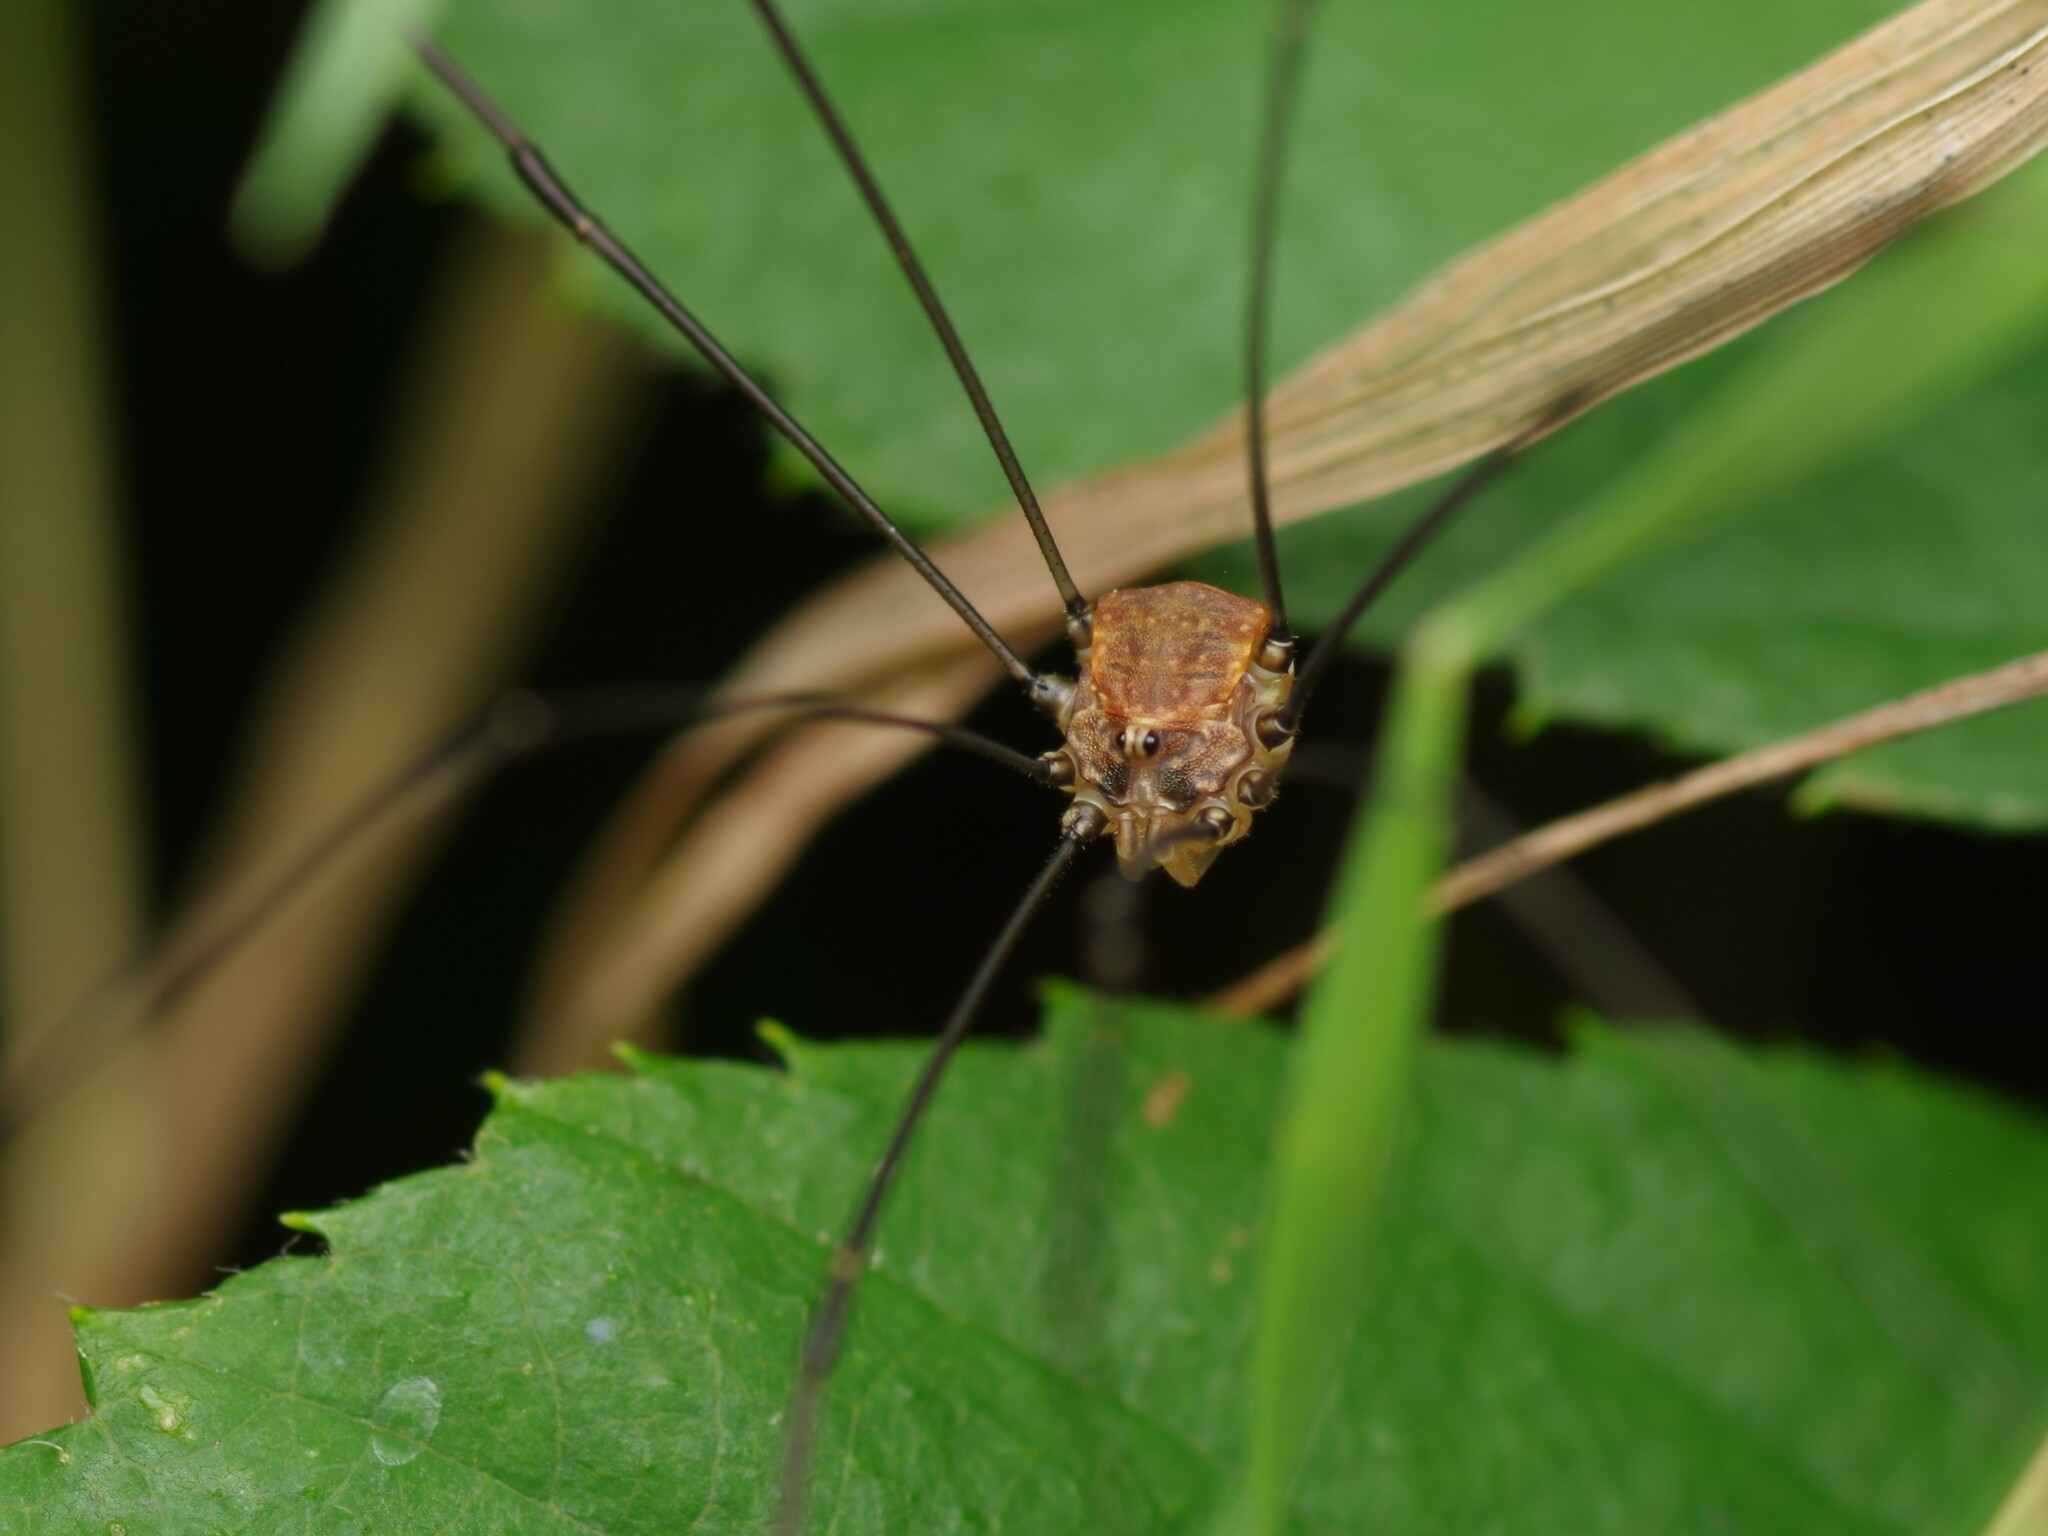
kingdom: Animalia
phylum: Arthropoda
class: Arachnida
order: Opiliones
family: Sclerosomatidae
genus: Leiobunum
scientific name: Leiobunum blackwalli
